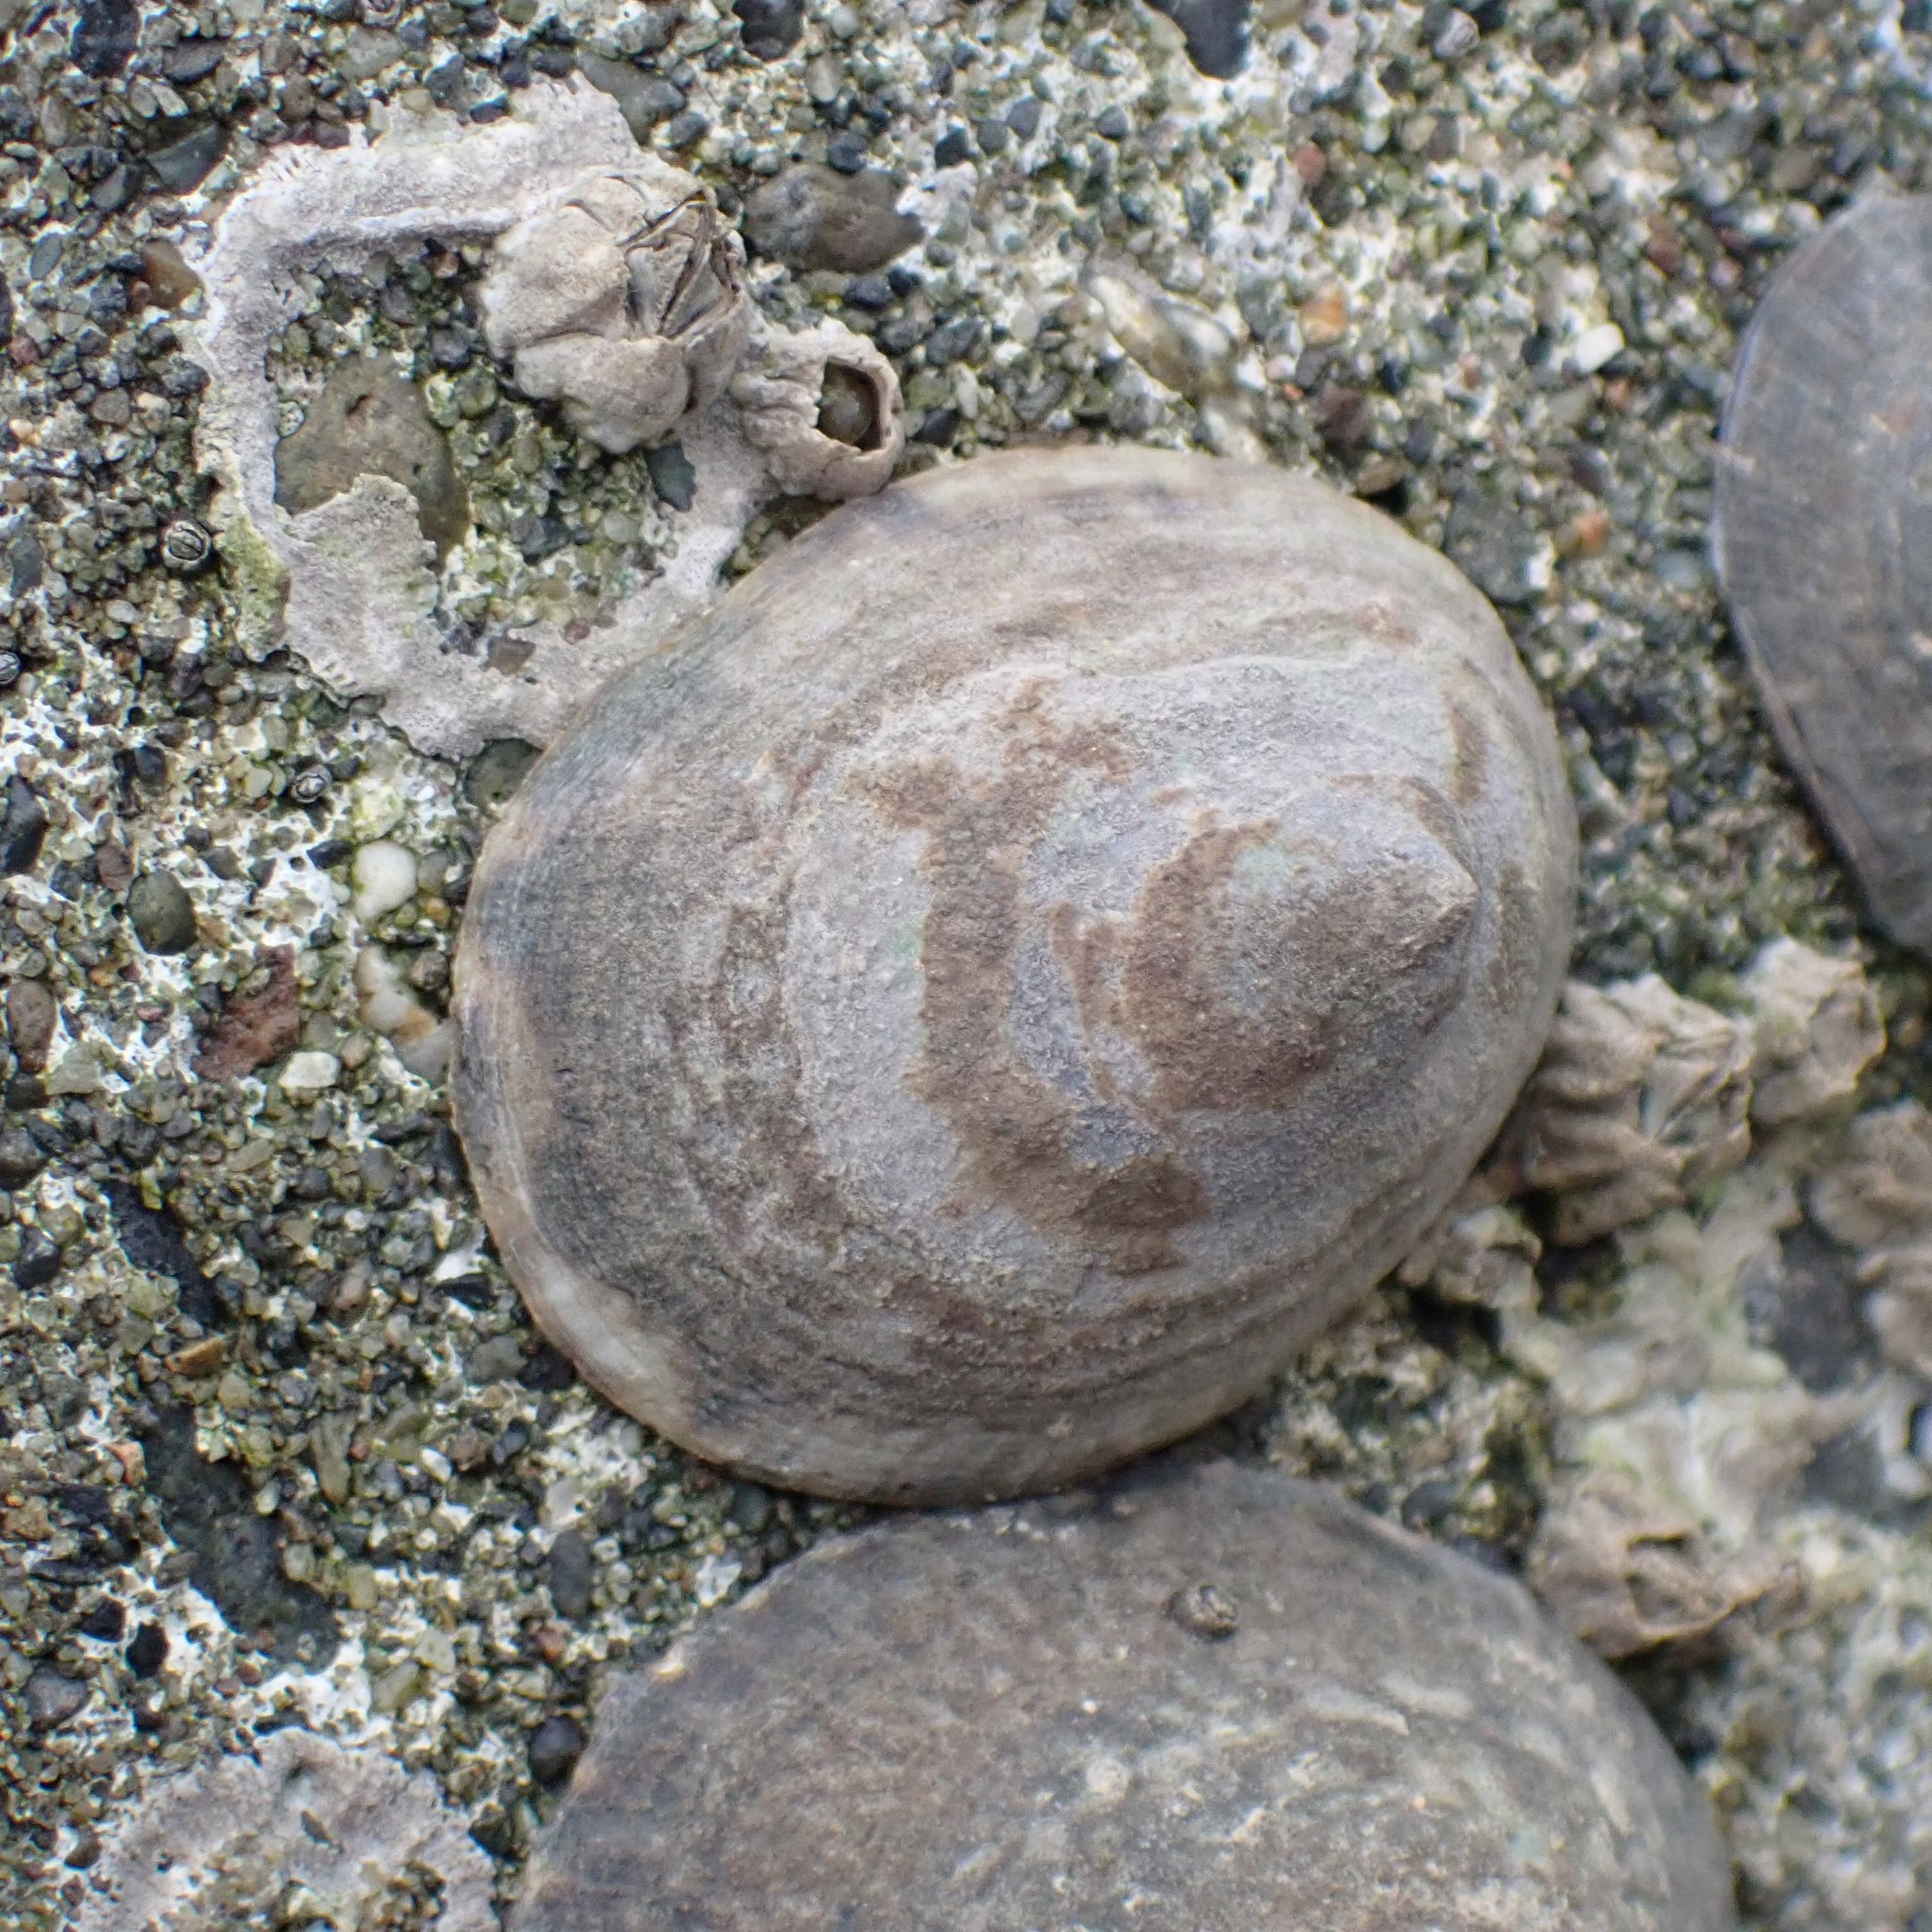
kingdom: Animalia
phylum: Mollusca
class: Gastropoda
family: Lottiidae
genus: Lottia
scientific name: Lottia persona
